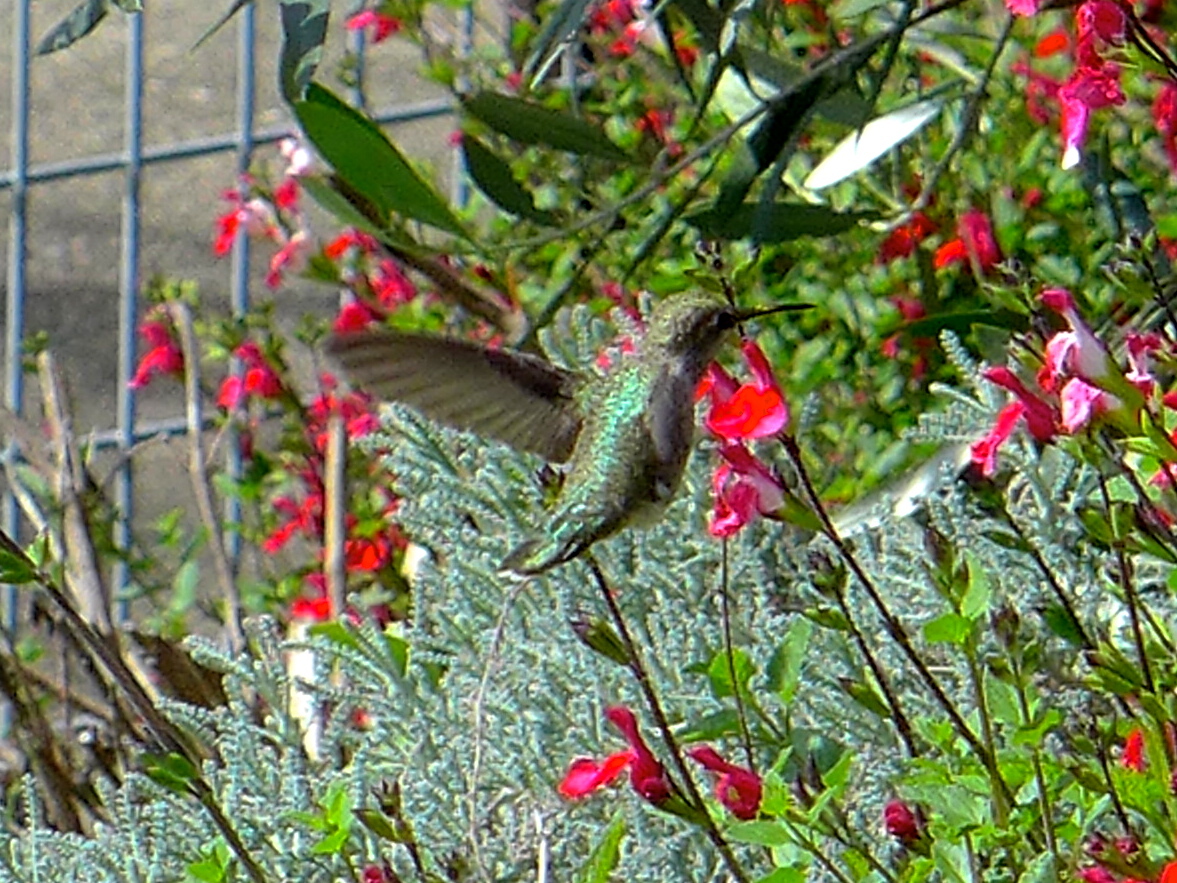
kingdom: Animalia
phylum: Chordata
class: Aves
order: Apodiformes
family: Trochilidae
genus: Calypte
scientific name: Calypte anna
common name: Anna's hummingbird
